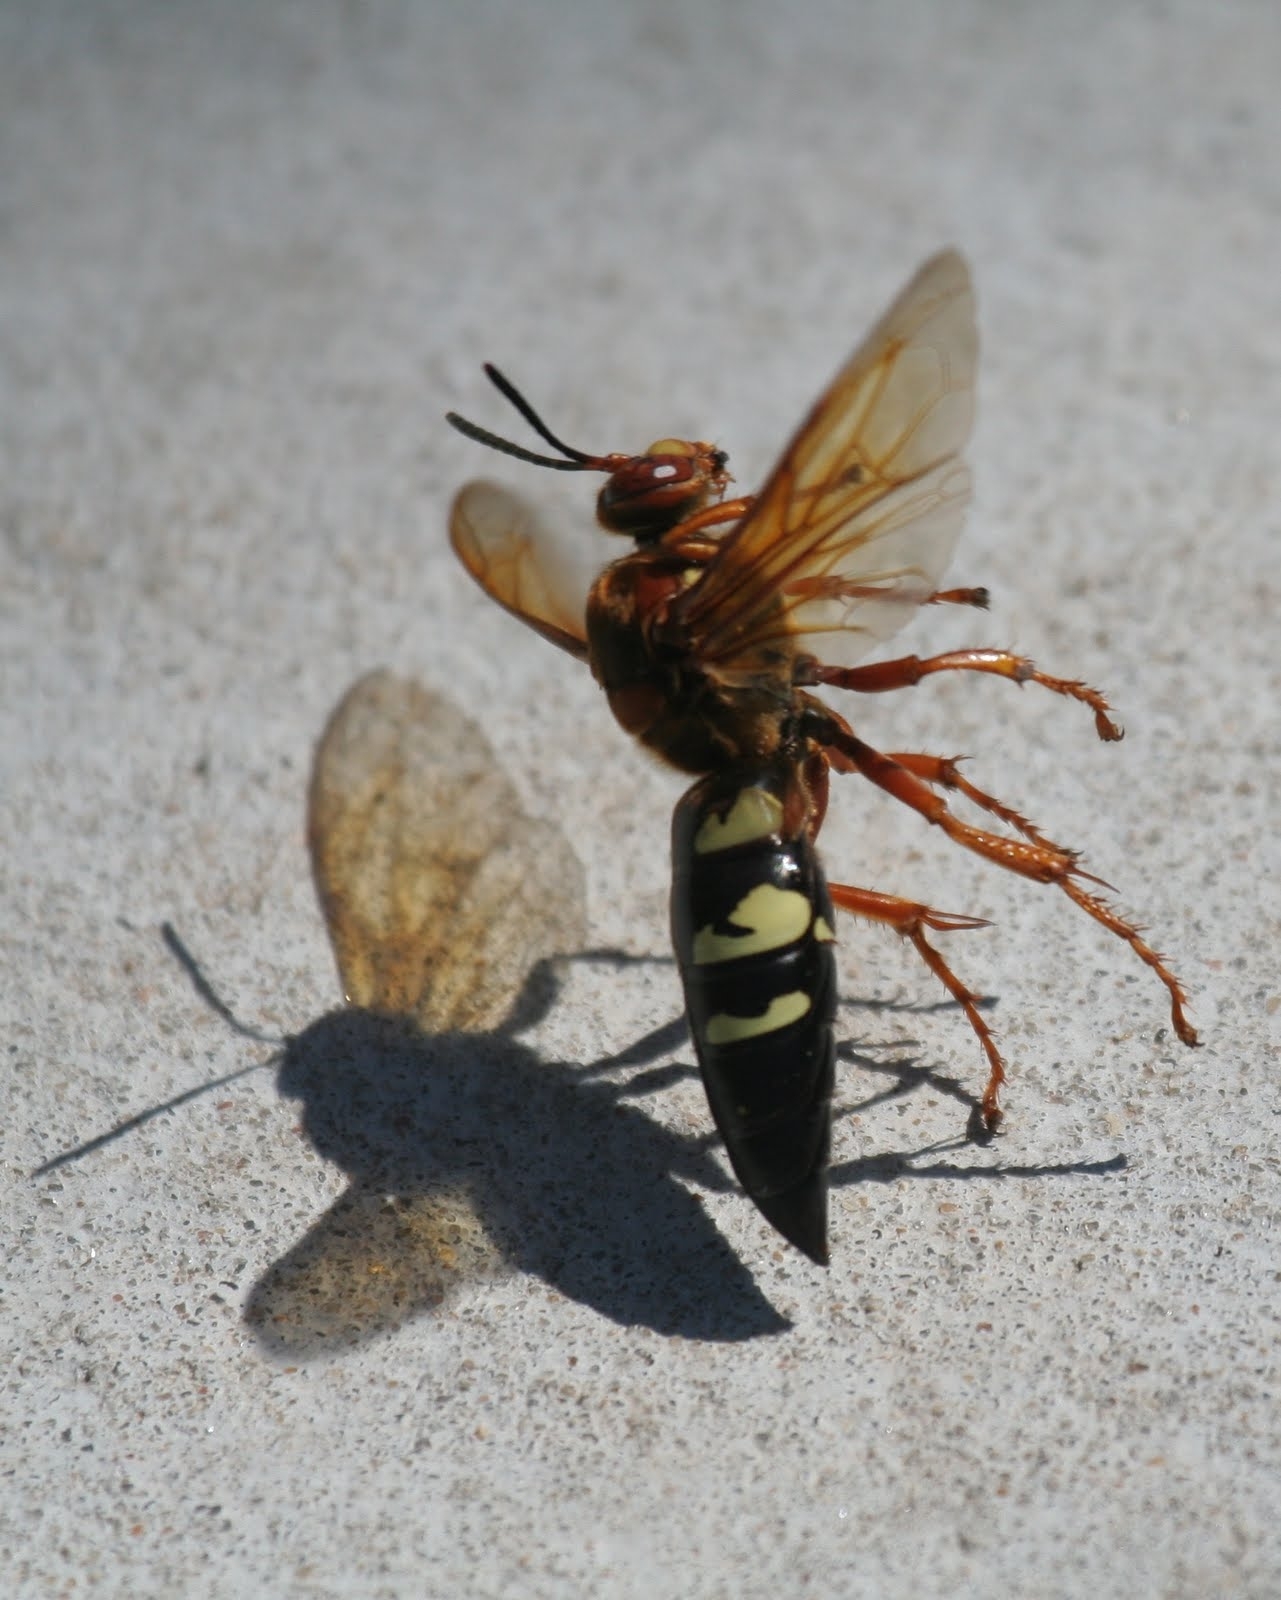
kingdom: Animalia
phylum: Arthropoda
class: Insecta
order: Hymenoptera
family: Crabronidae
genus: Sphecius
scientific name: Sphecius speciosus
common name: Cicada killer
